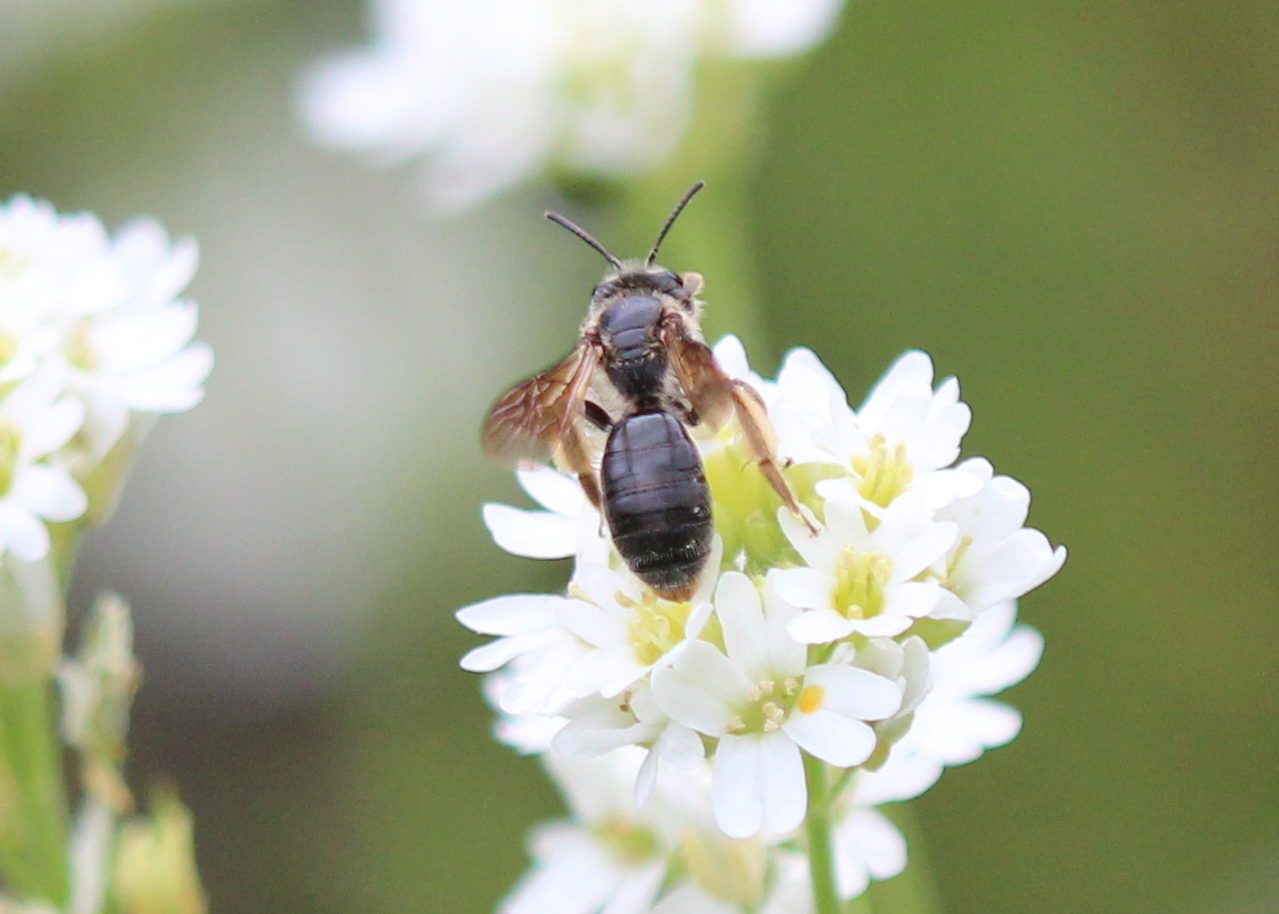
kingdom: Animalia
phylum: Arthropoda
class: Insecta
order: Hymenoptera
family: Andrenidae
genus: Andrena
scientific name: Andrena crataegi
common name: Hawthorn mining bee
